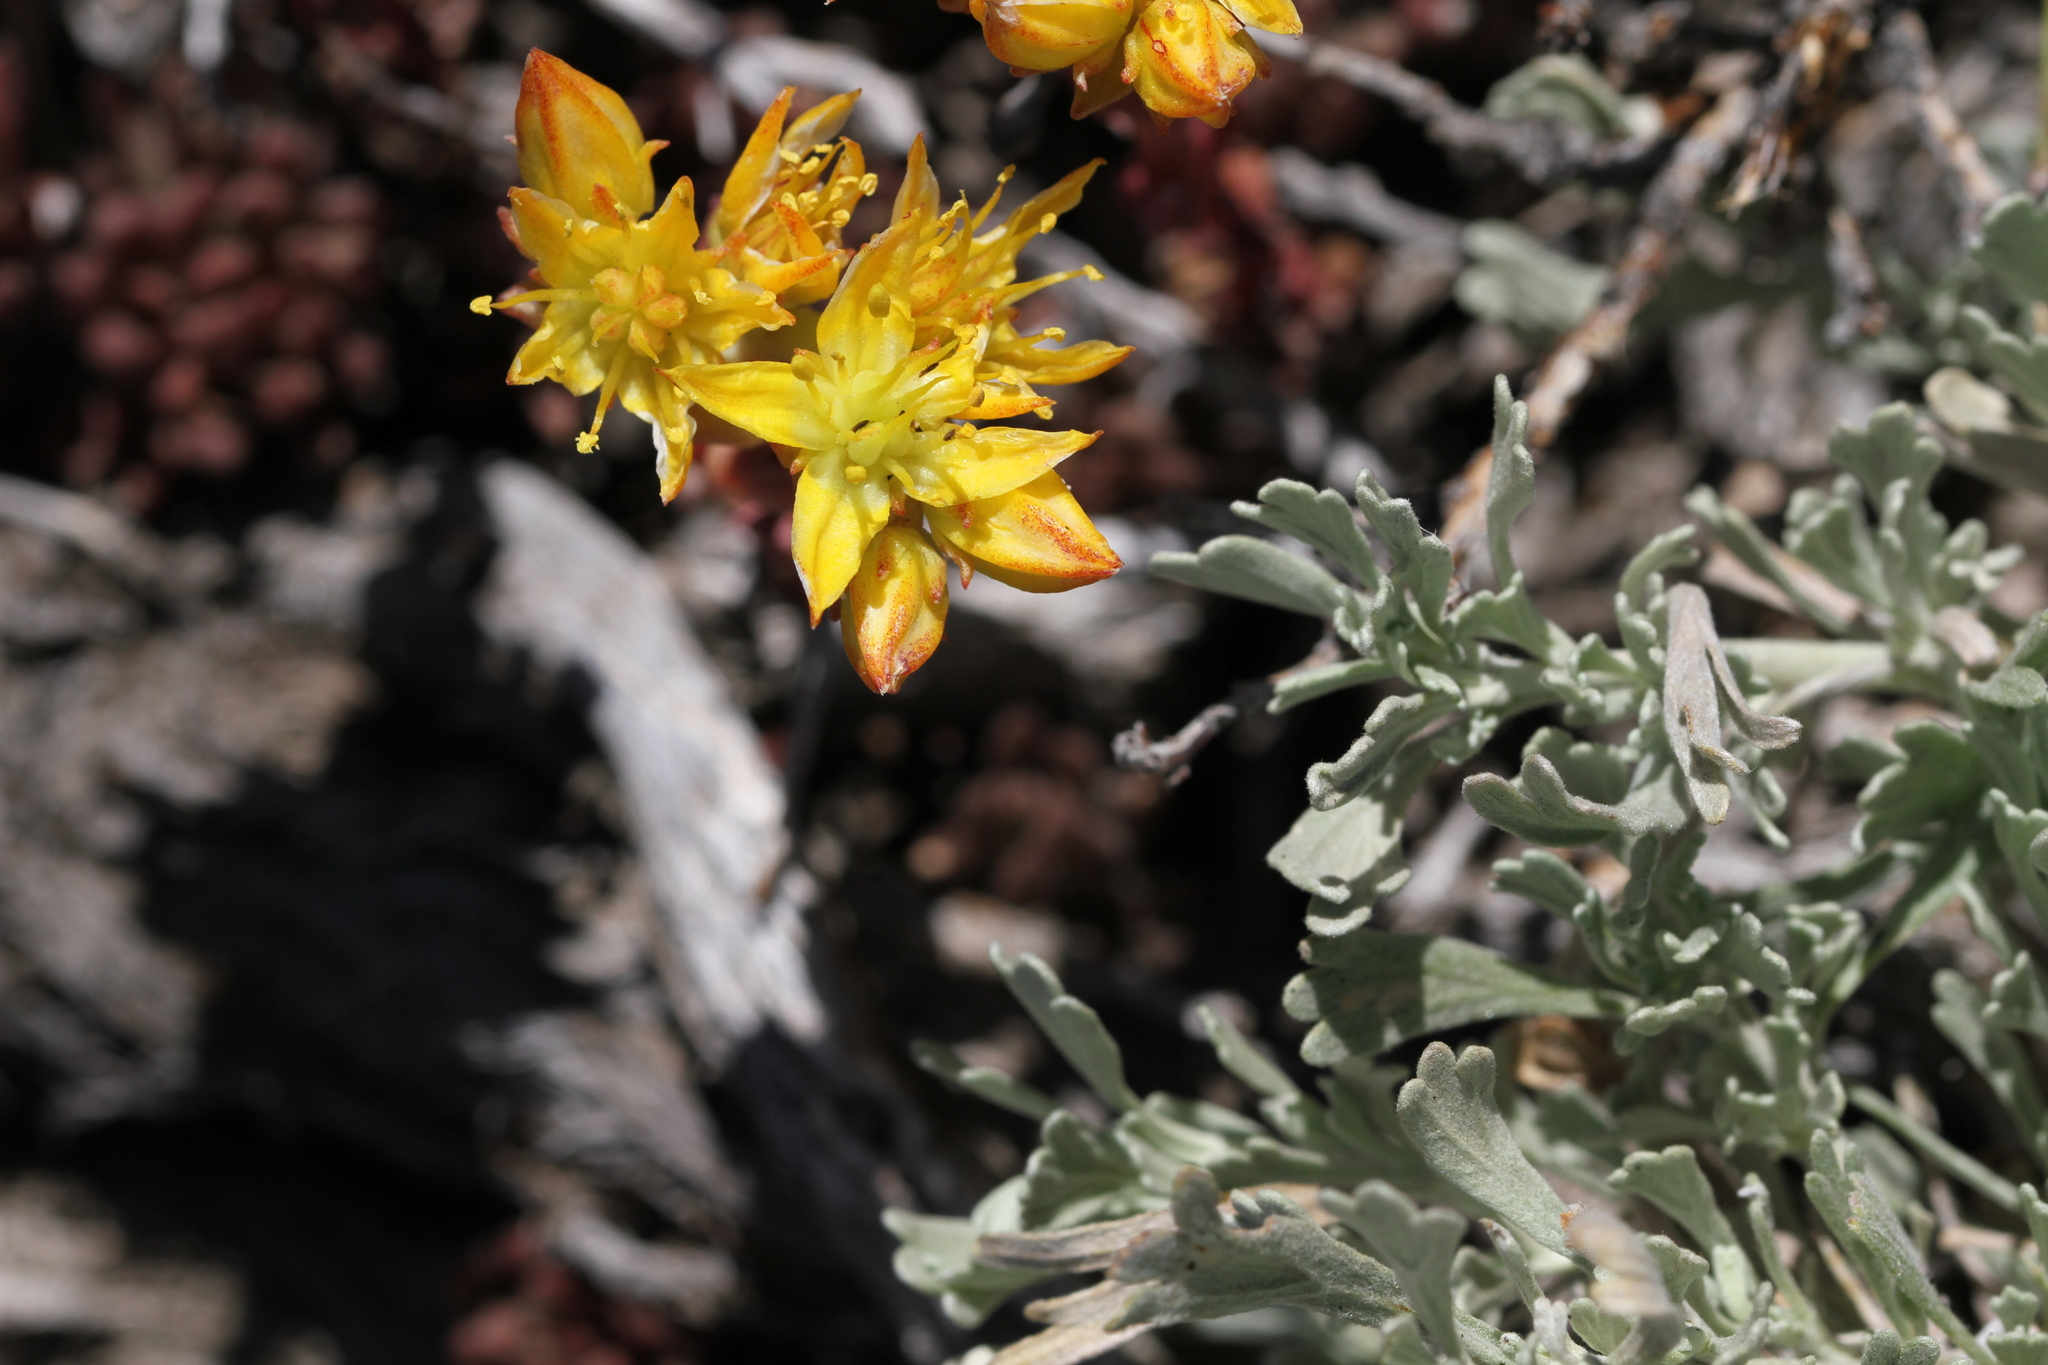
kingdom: Plantae
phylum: Tracheophyta
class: Magnoliopsida
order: Saxifragales
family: Crassulaceae
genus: Sedum
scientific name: Sedum lanceolatum
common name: Common stonecrop
